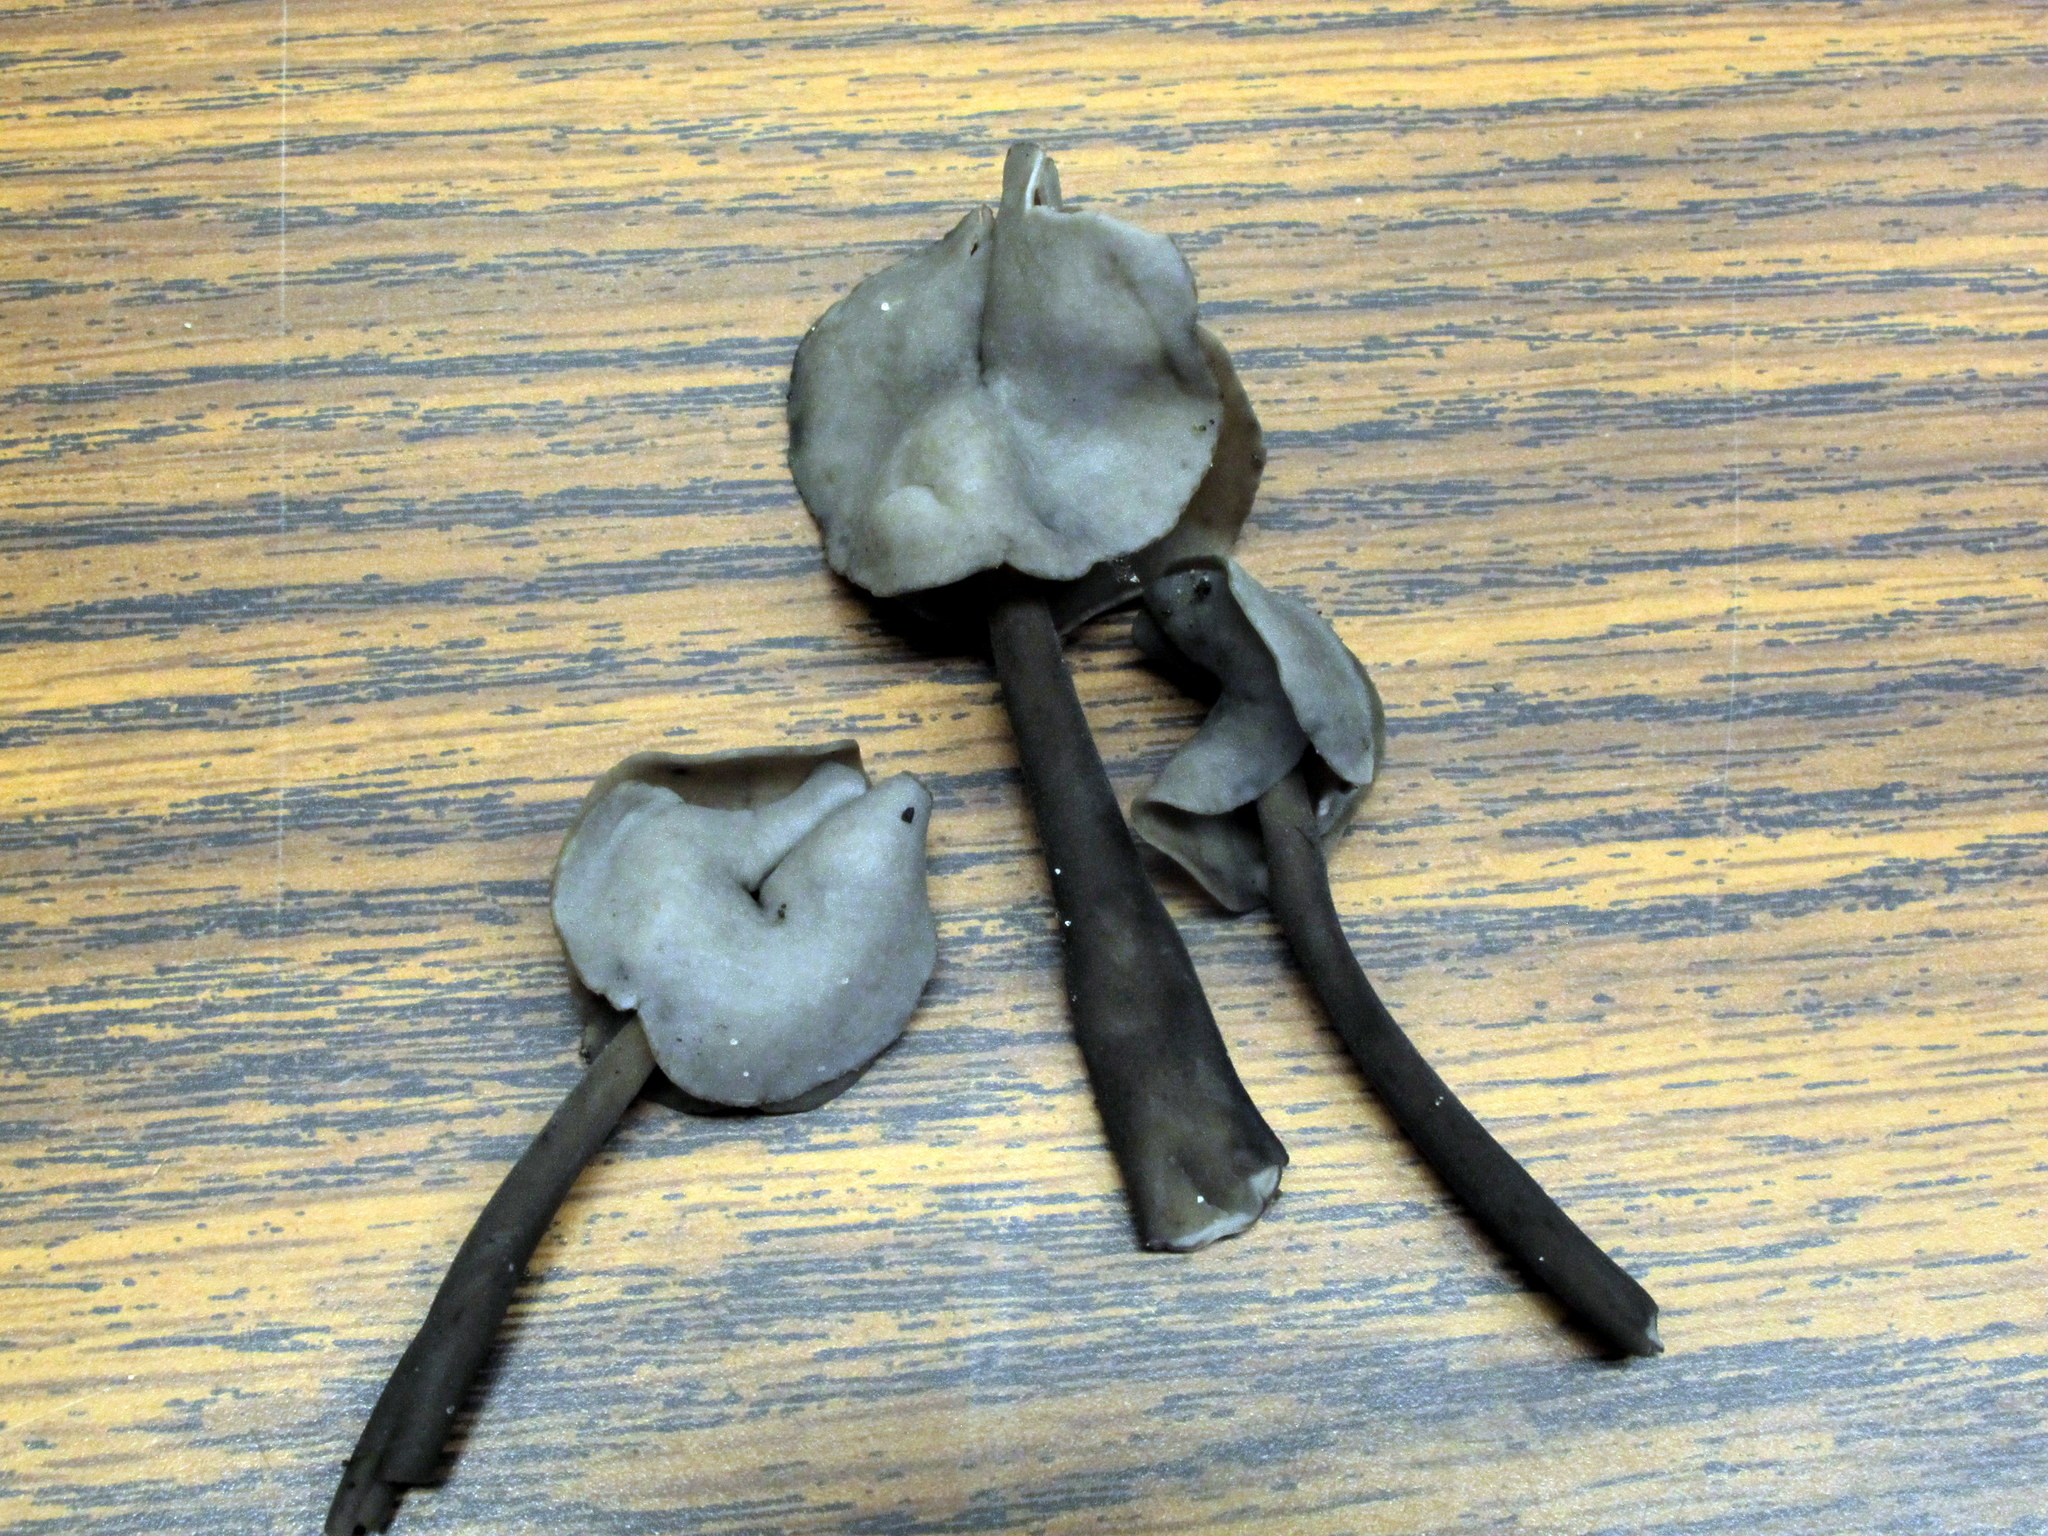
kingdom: Fungi
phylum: Ascomycota
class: Pezizomycetes
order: Pezizales
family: Helvellaceae
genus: Helvella
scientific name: Helvella atra
